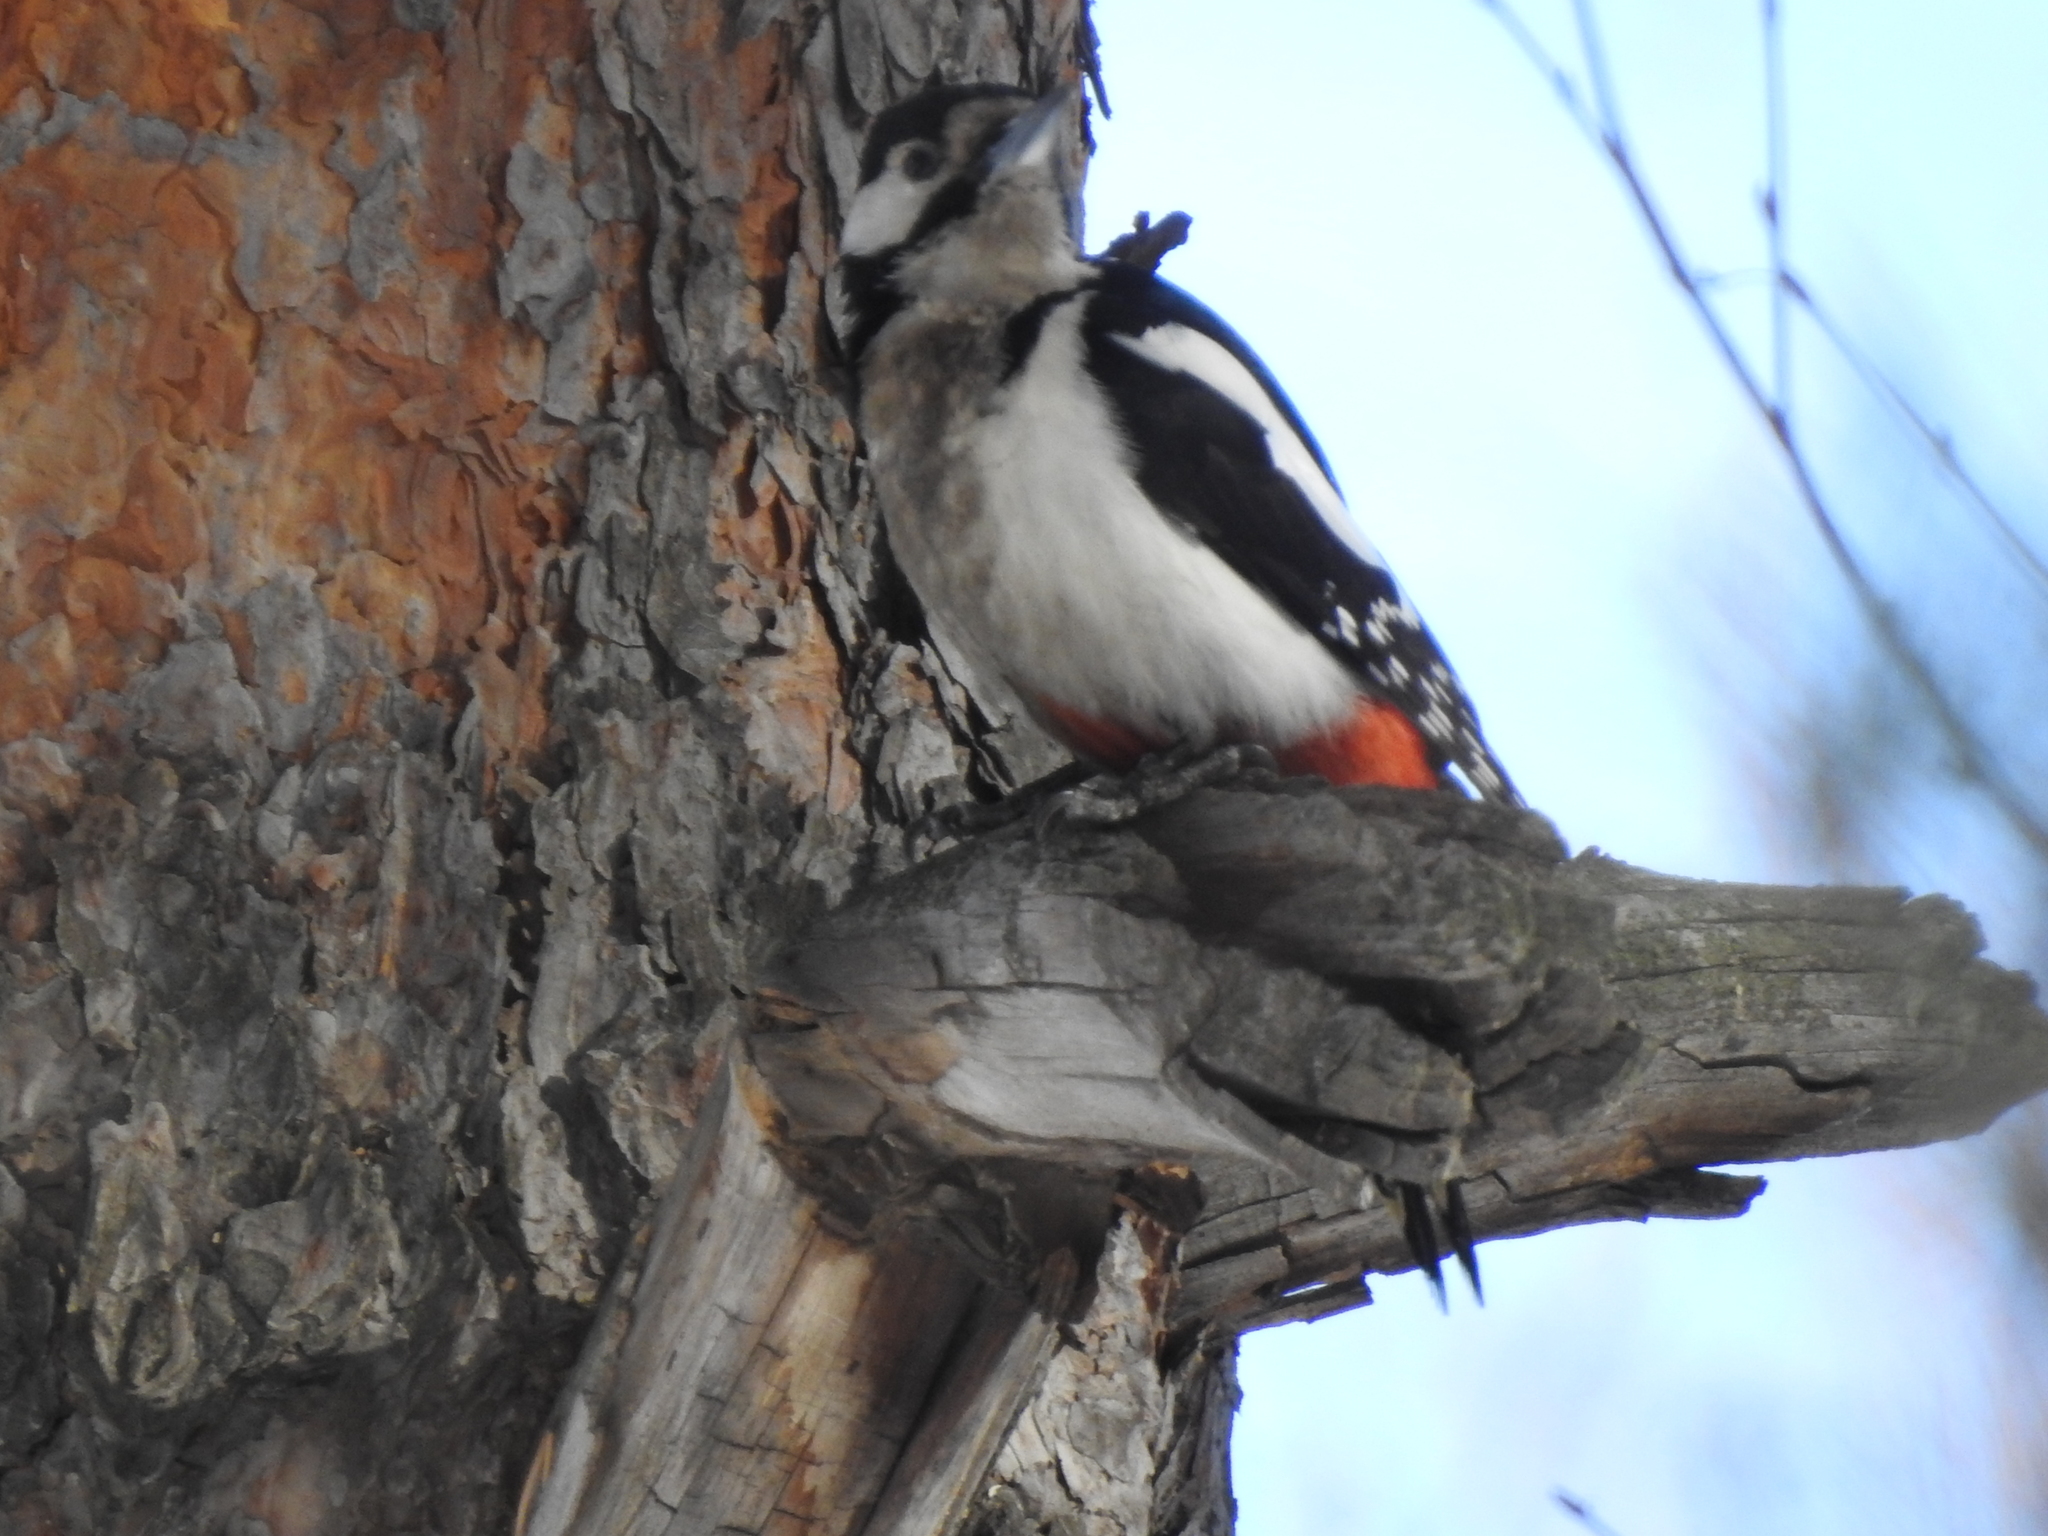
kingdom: Animalia
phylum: Chordata
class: Aves
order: Piciformes
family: Picidae
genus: Dendrocopos
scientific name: Dendrocopos major
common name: Great spotted woodpecker
